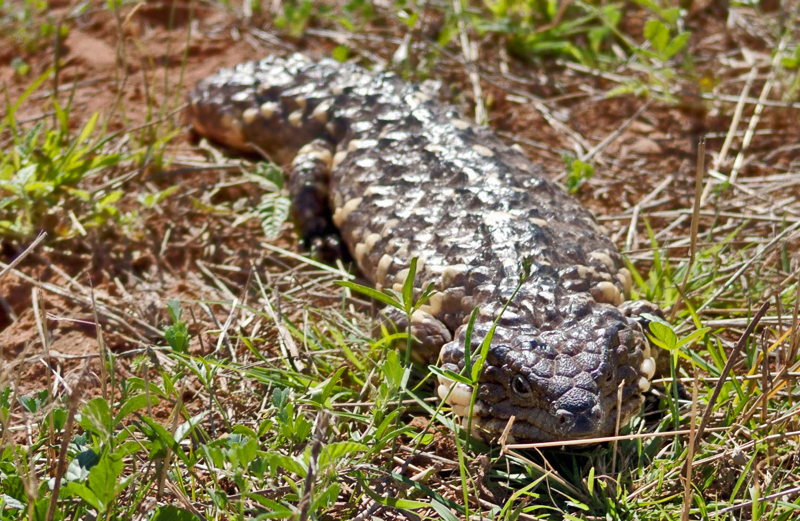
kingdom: Animalia
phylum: Chordata
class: Squamata
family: Scincidae
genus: Tiliqua
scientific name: Tiliqua rugosa
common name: Pinecone lizard
